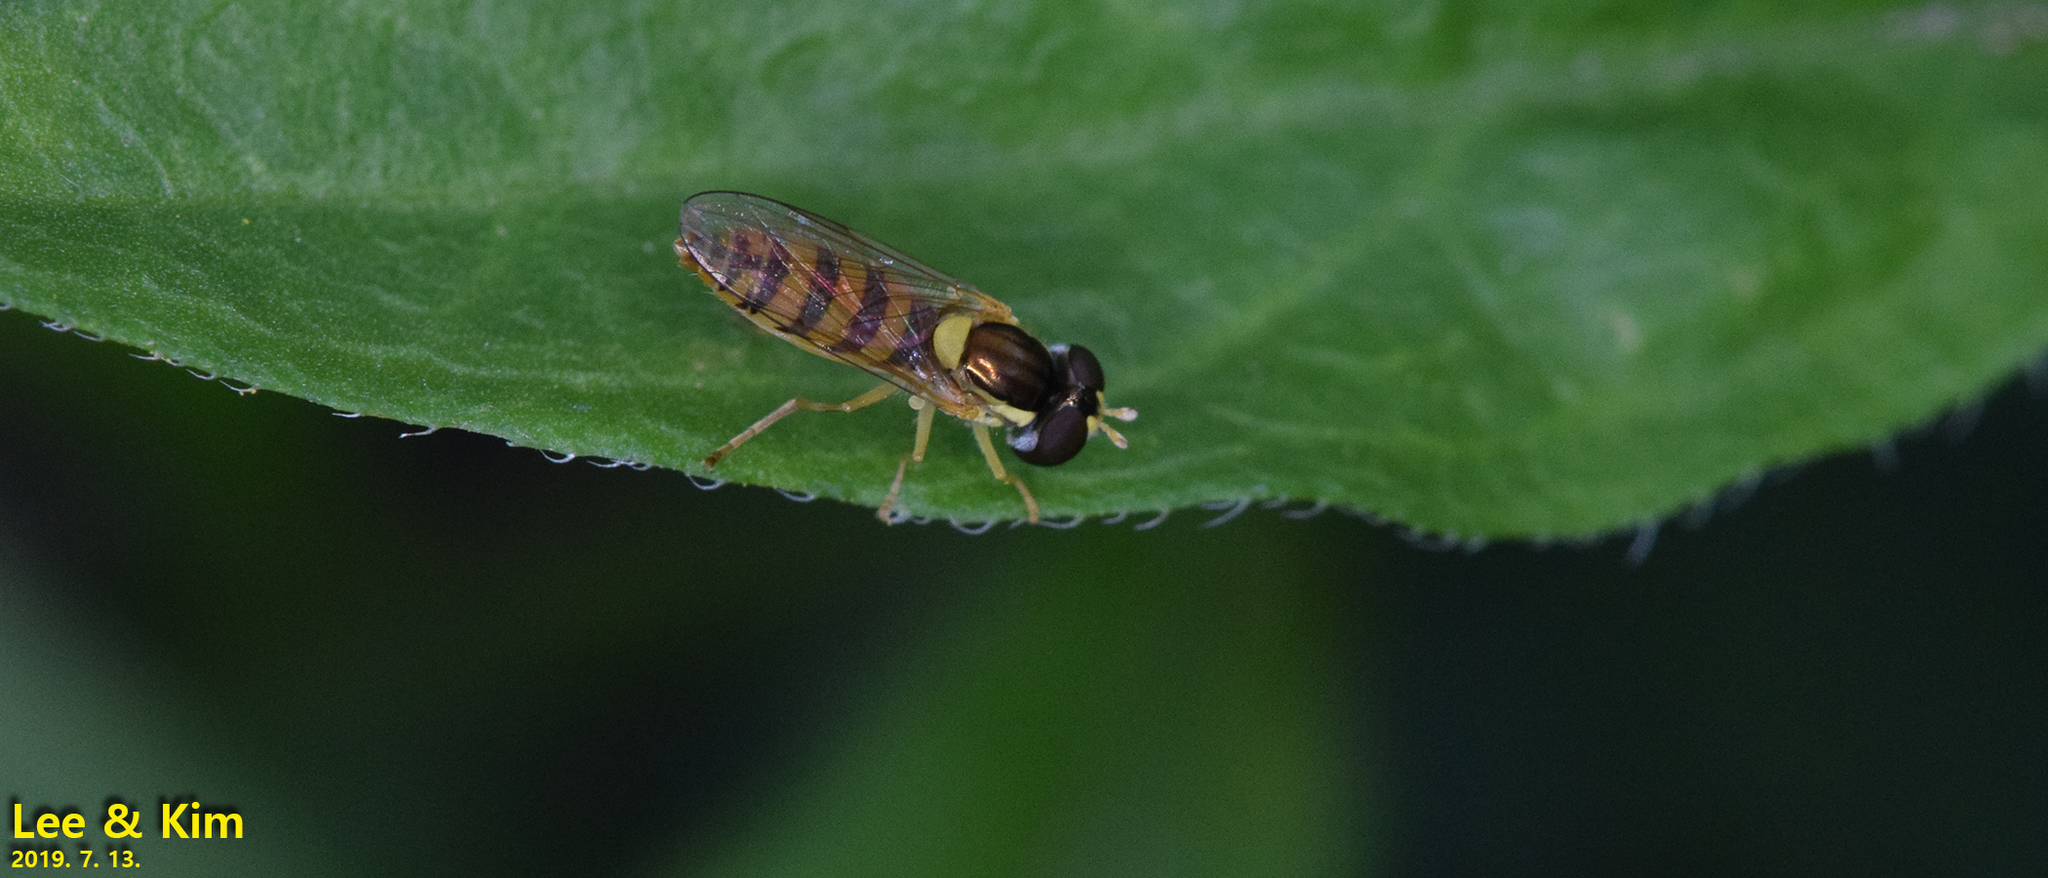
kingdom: Animalia
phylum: Arthropoda
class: Insecta
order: Diptera
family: Syrphidae
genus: Sphaerophoria
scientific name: Sphaerophoria scripta
